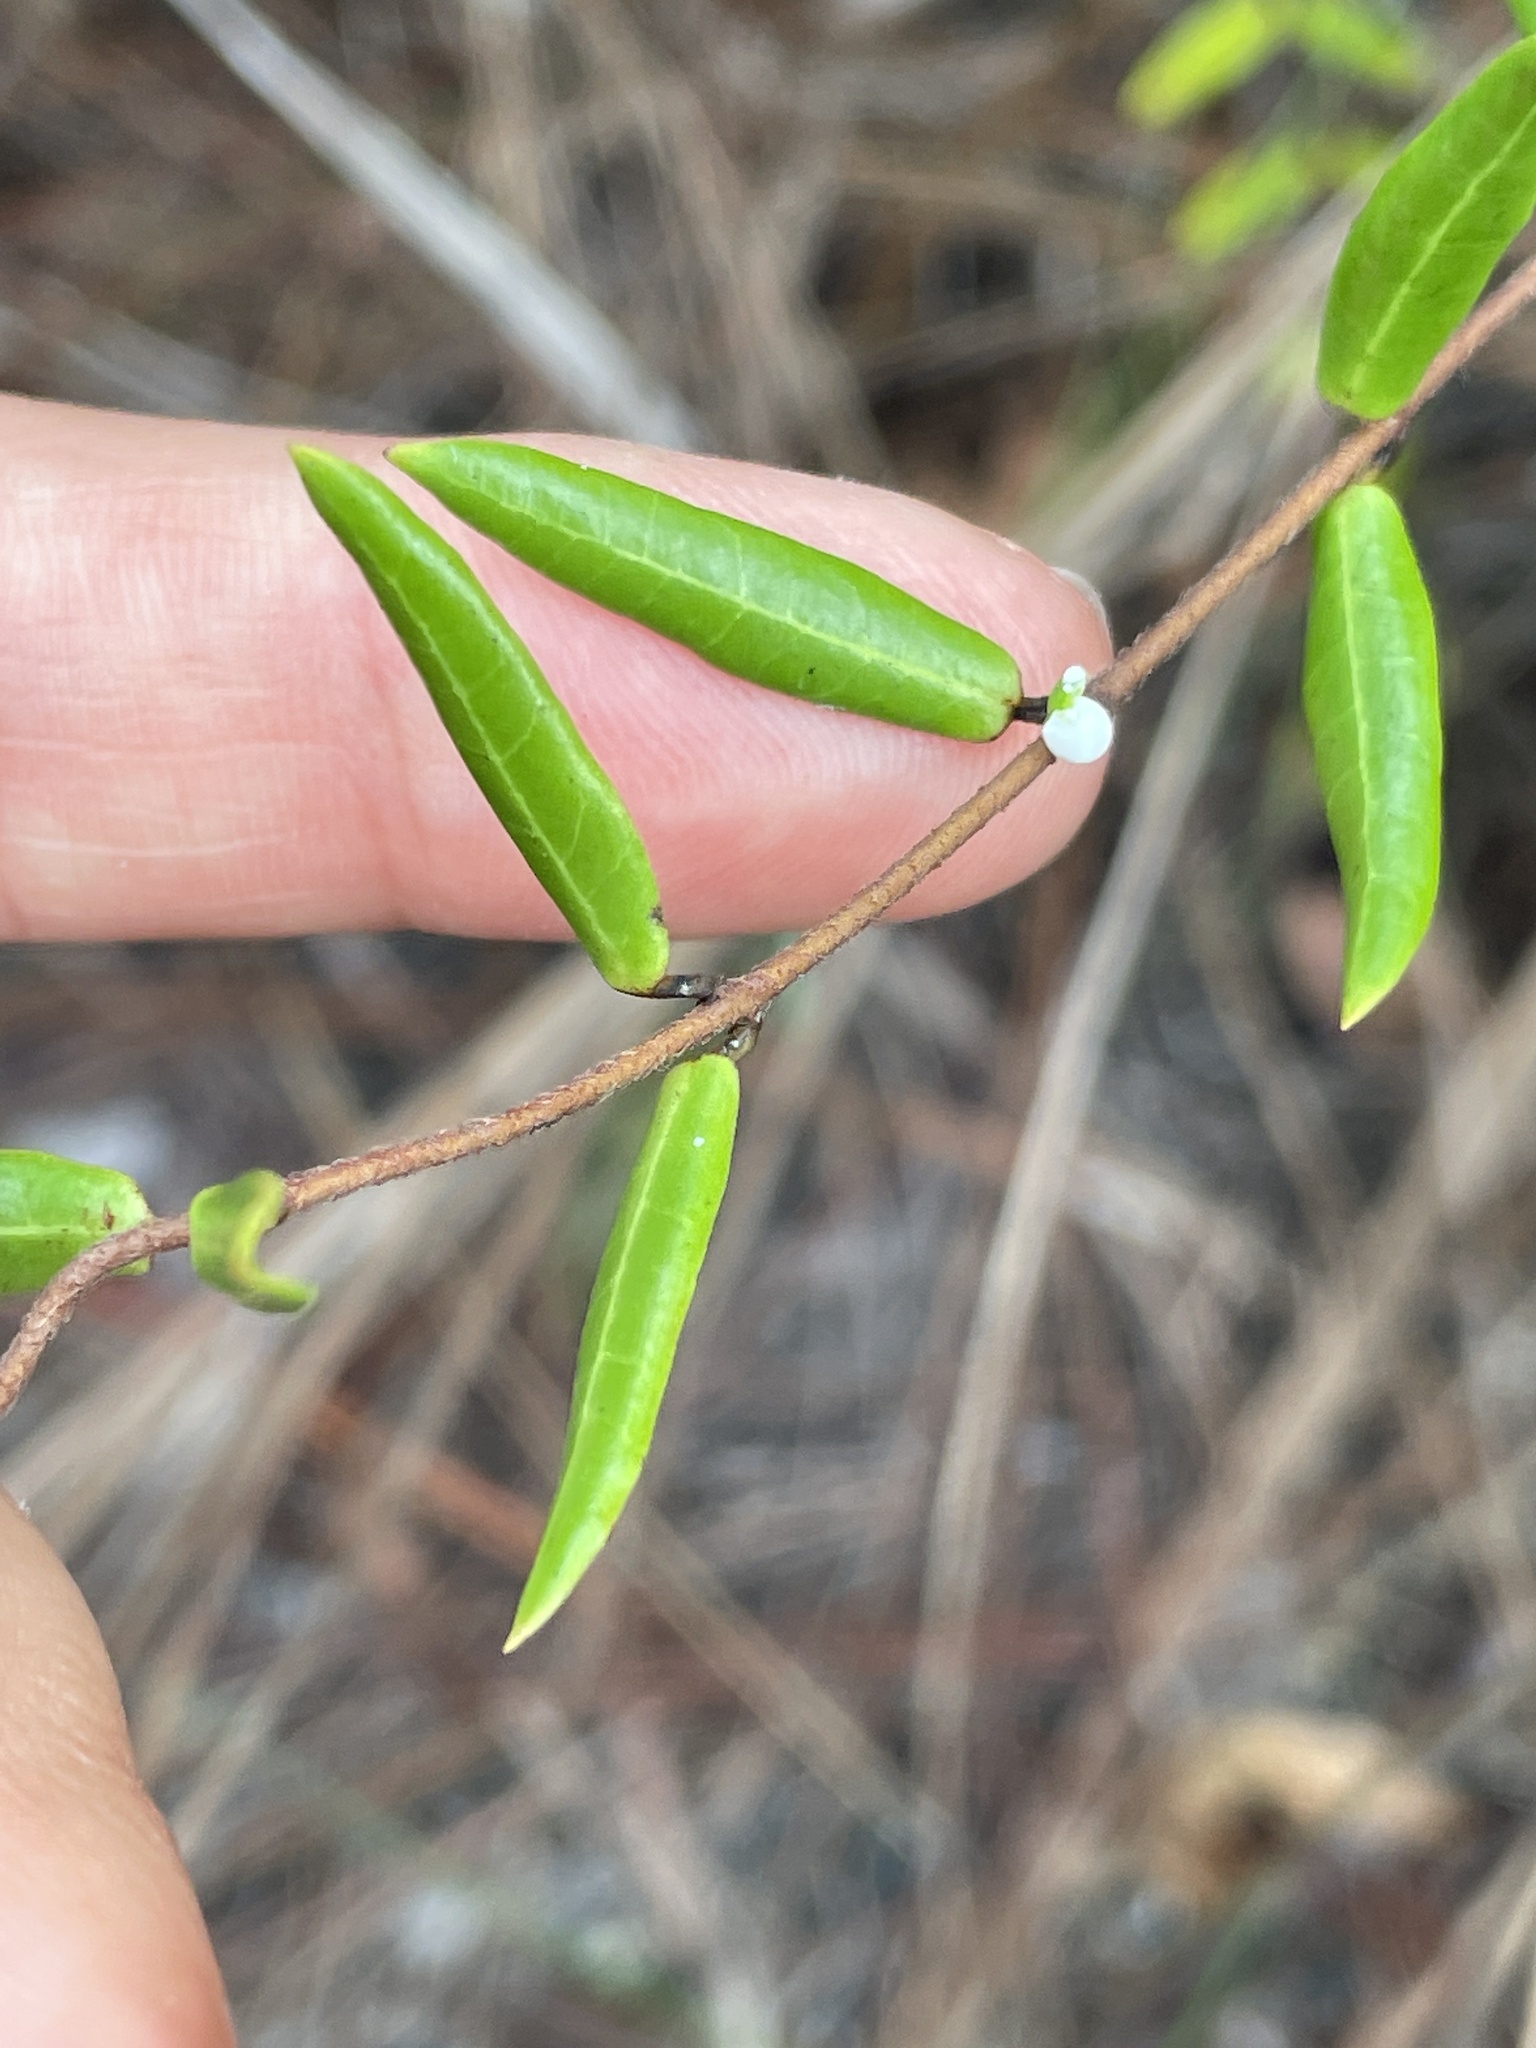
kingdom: Plantae
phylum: Tracheophyta
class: Magnoliopsida
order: Gentianales
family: Apocynaceae
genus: Angadenia
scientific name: Angadenia berteroi
